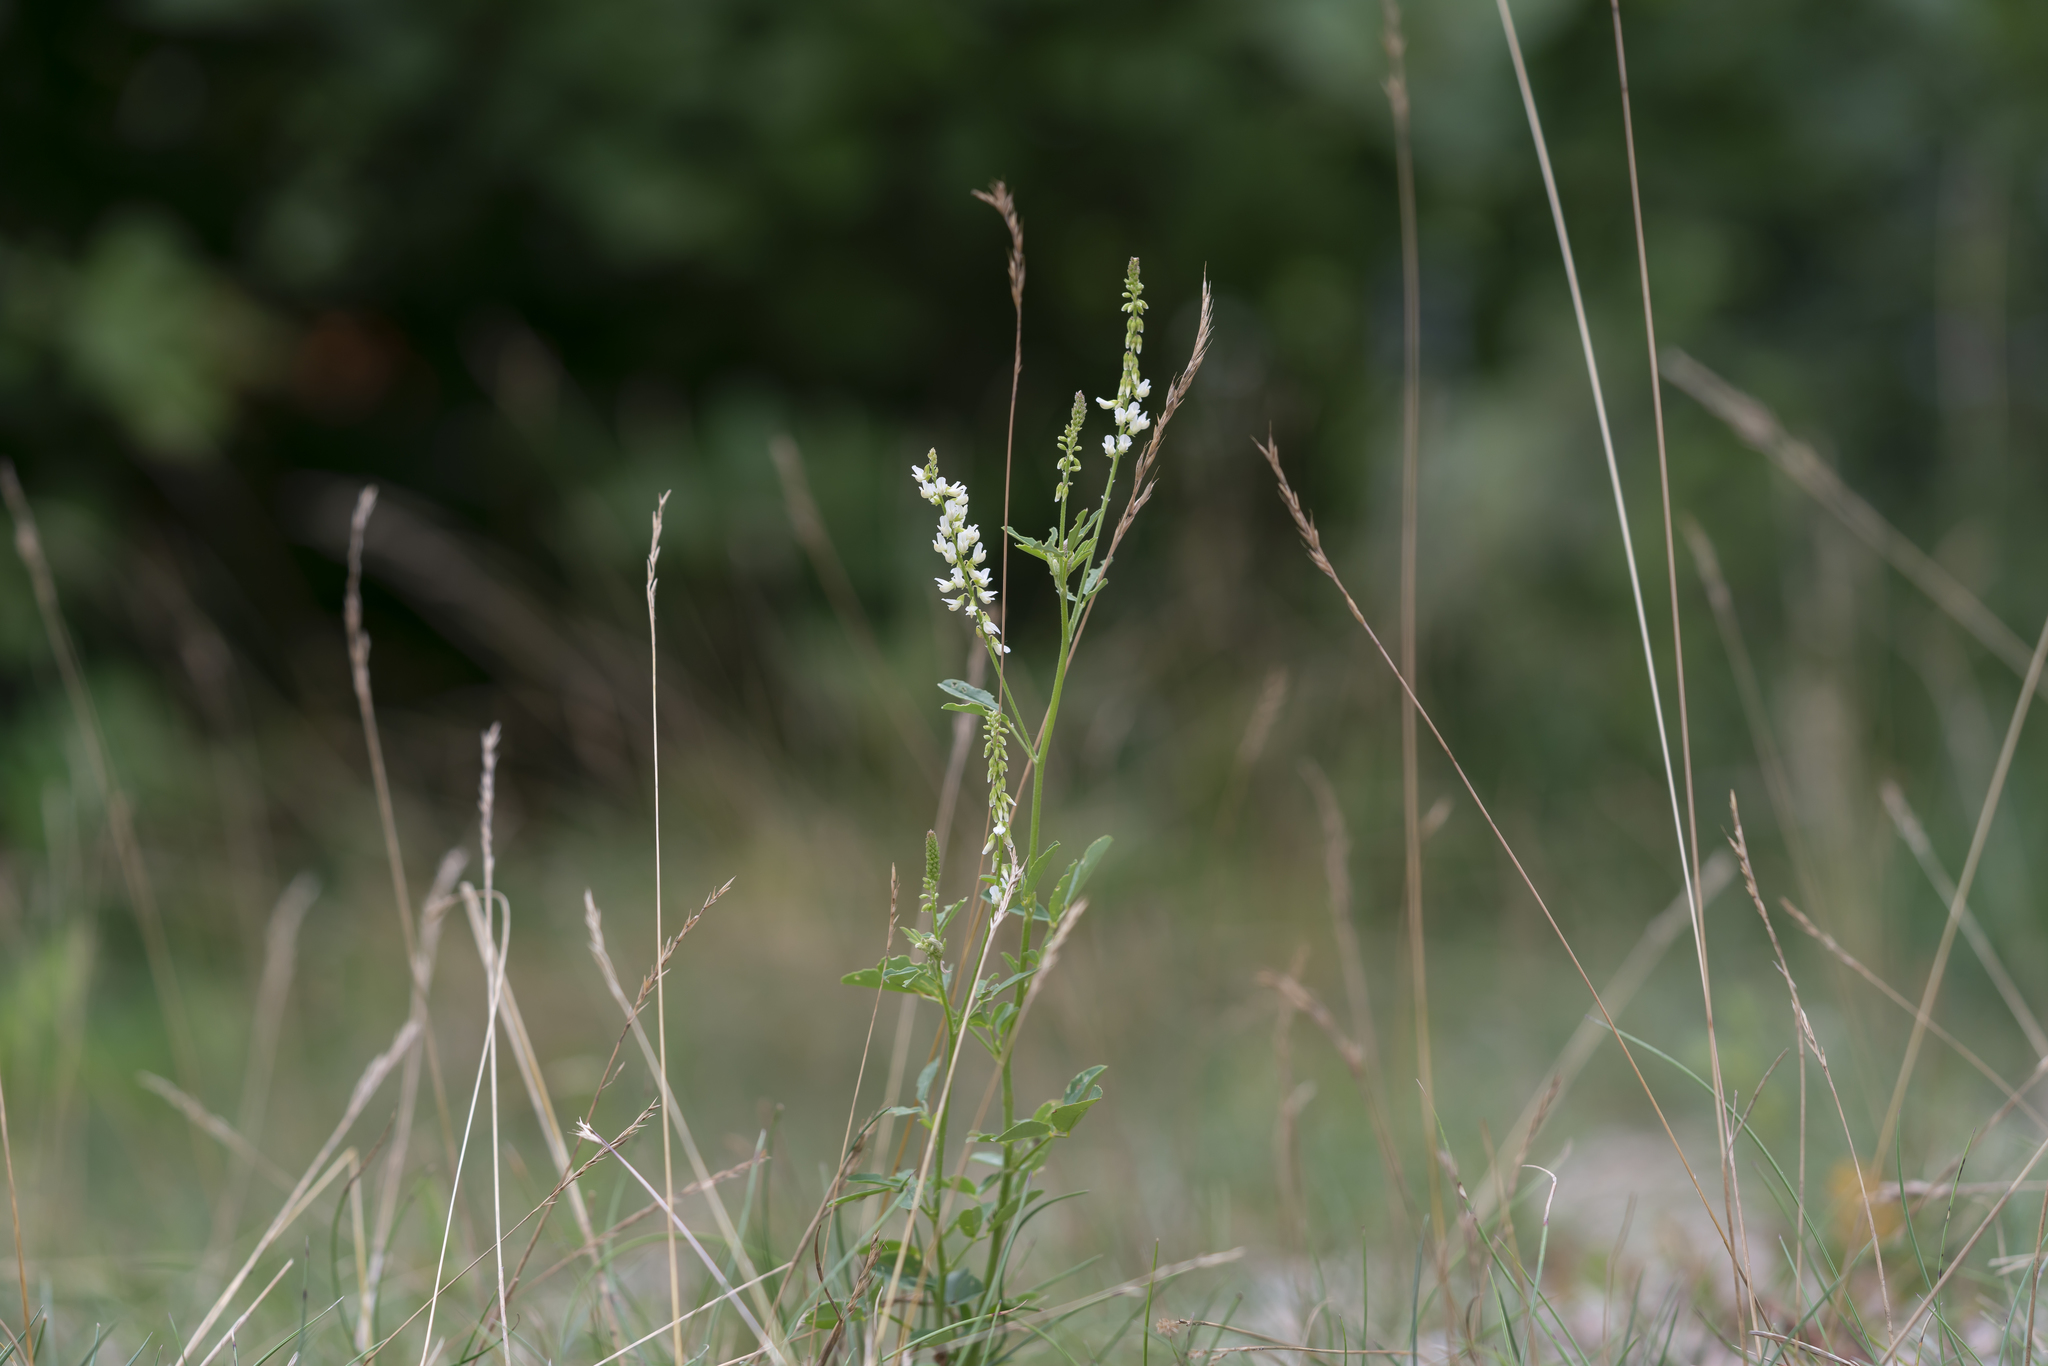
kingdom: Plantae
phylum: Tracheophyta
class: Magnoliopsida
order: Fabales
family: Fabaceae
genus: Melilotus
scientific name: Melilotus albus
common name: White melilot
